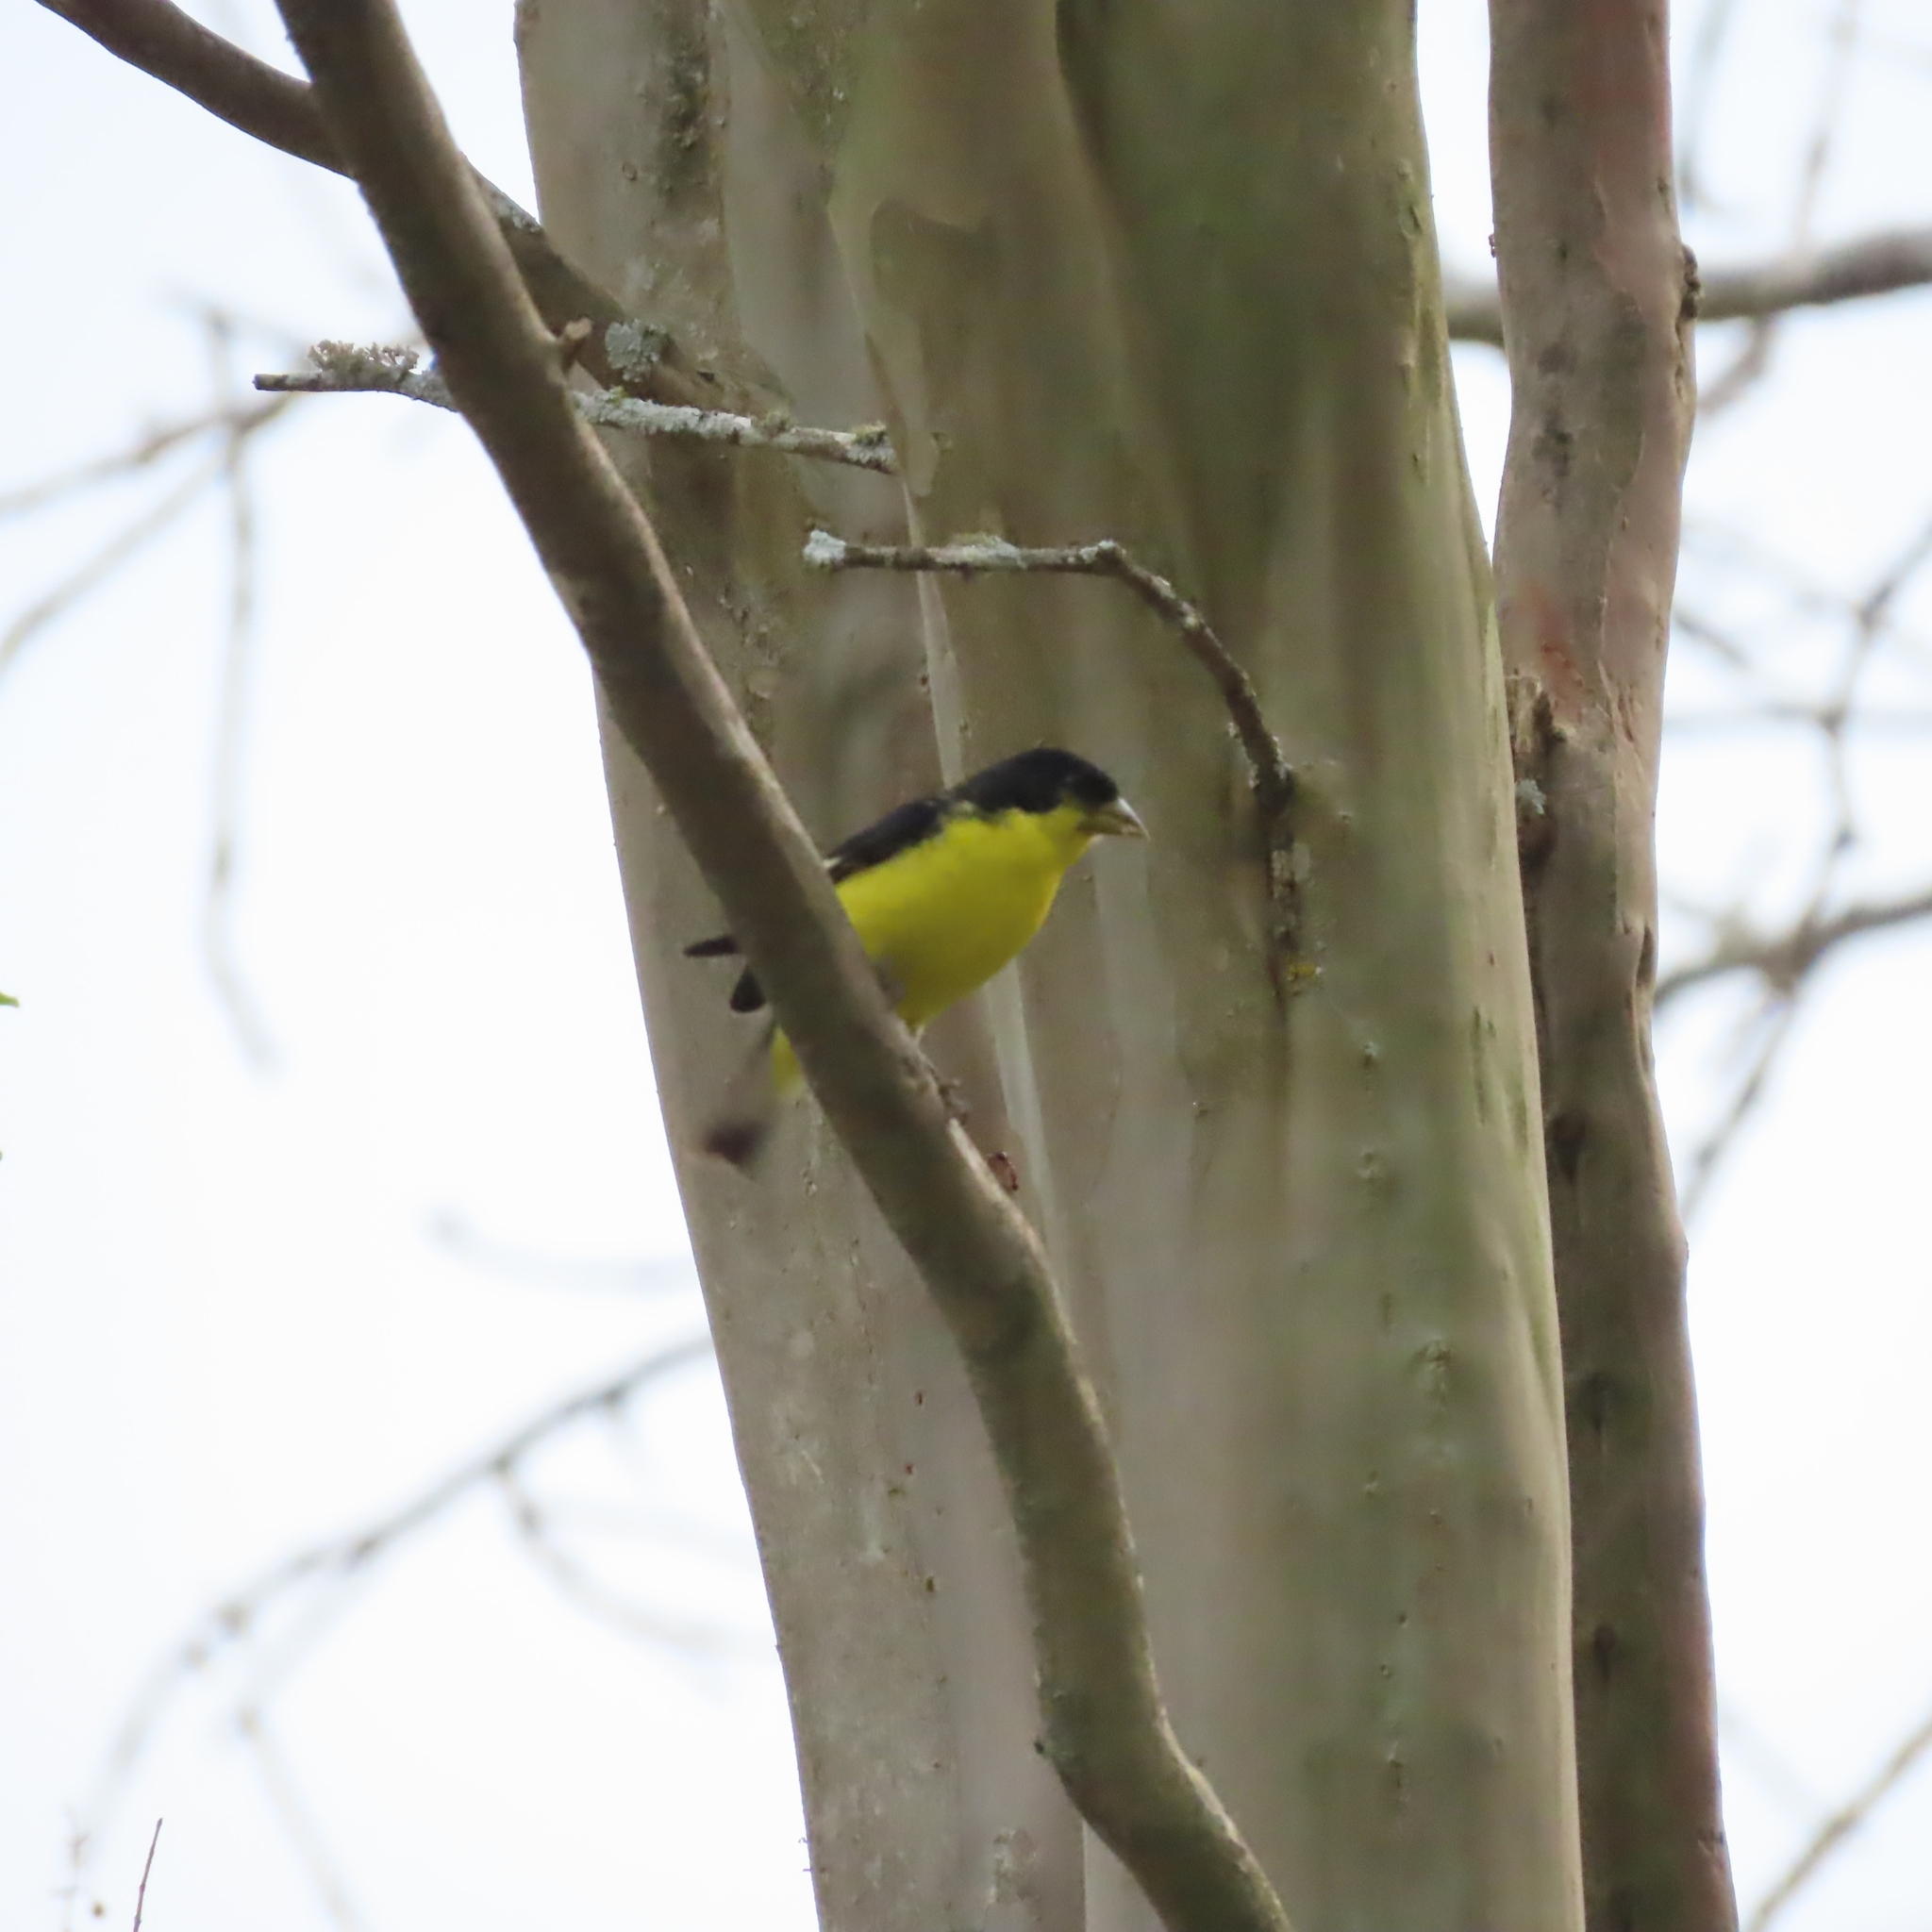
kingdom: Animalia
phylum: Chordata
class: Aves
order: Passeriformes
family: Fringillidae
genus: Spinus
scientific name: Spinus psaltria
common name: Lesser goldfinch
